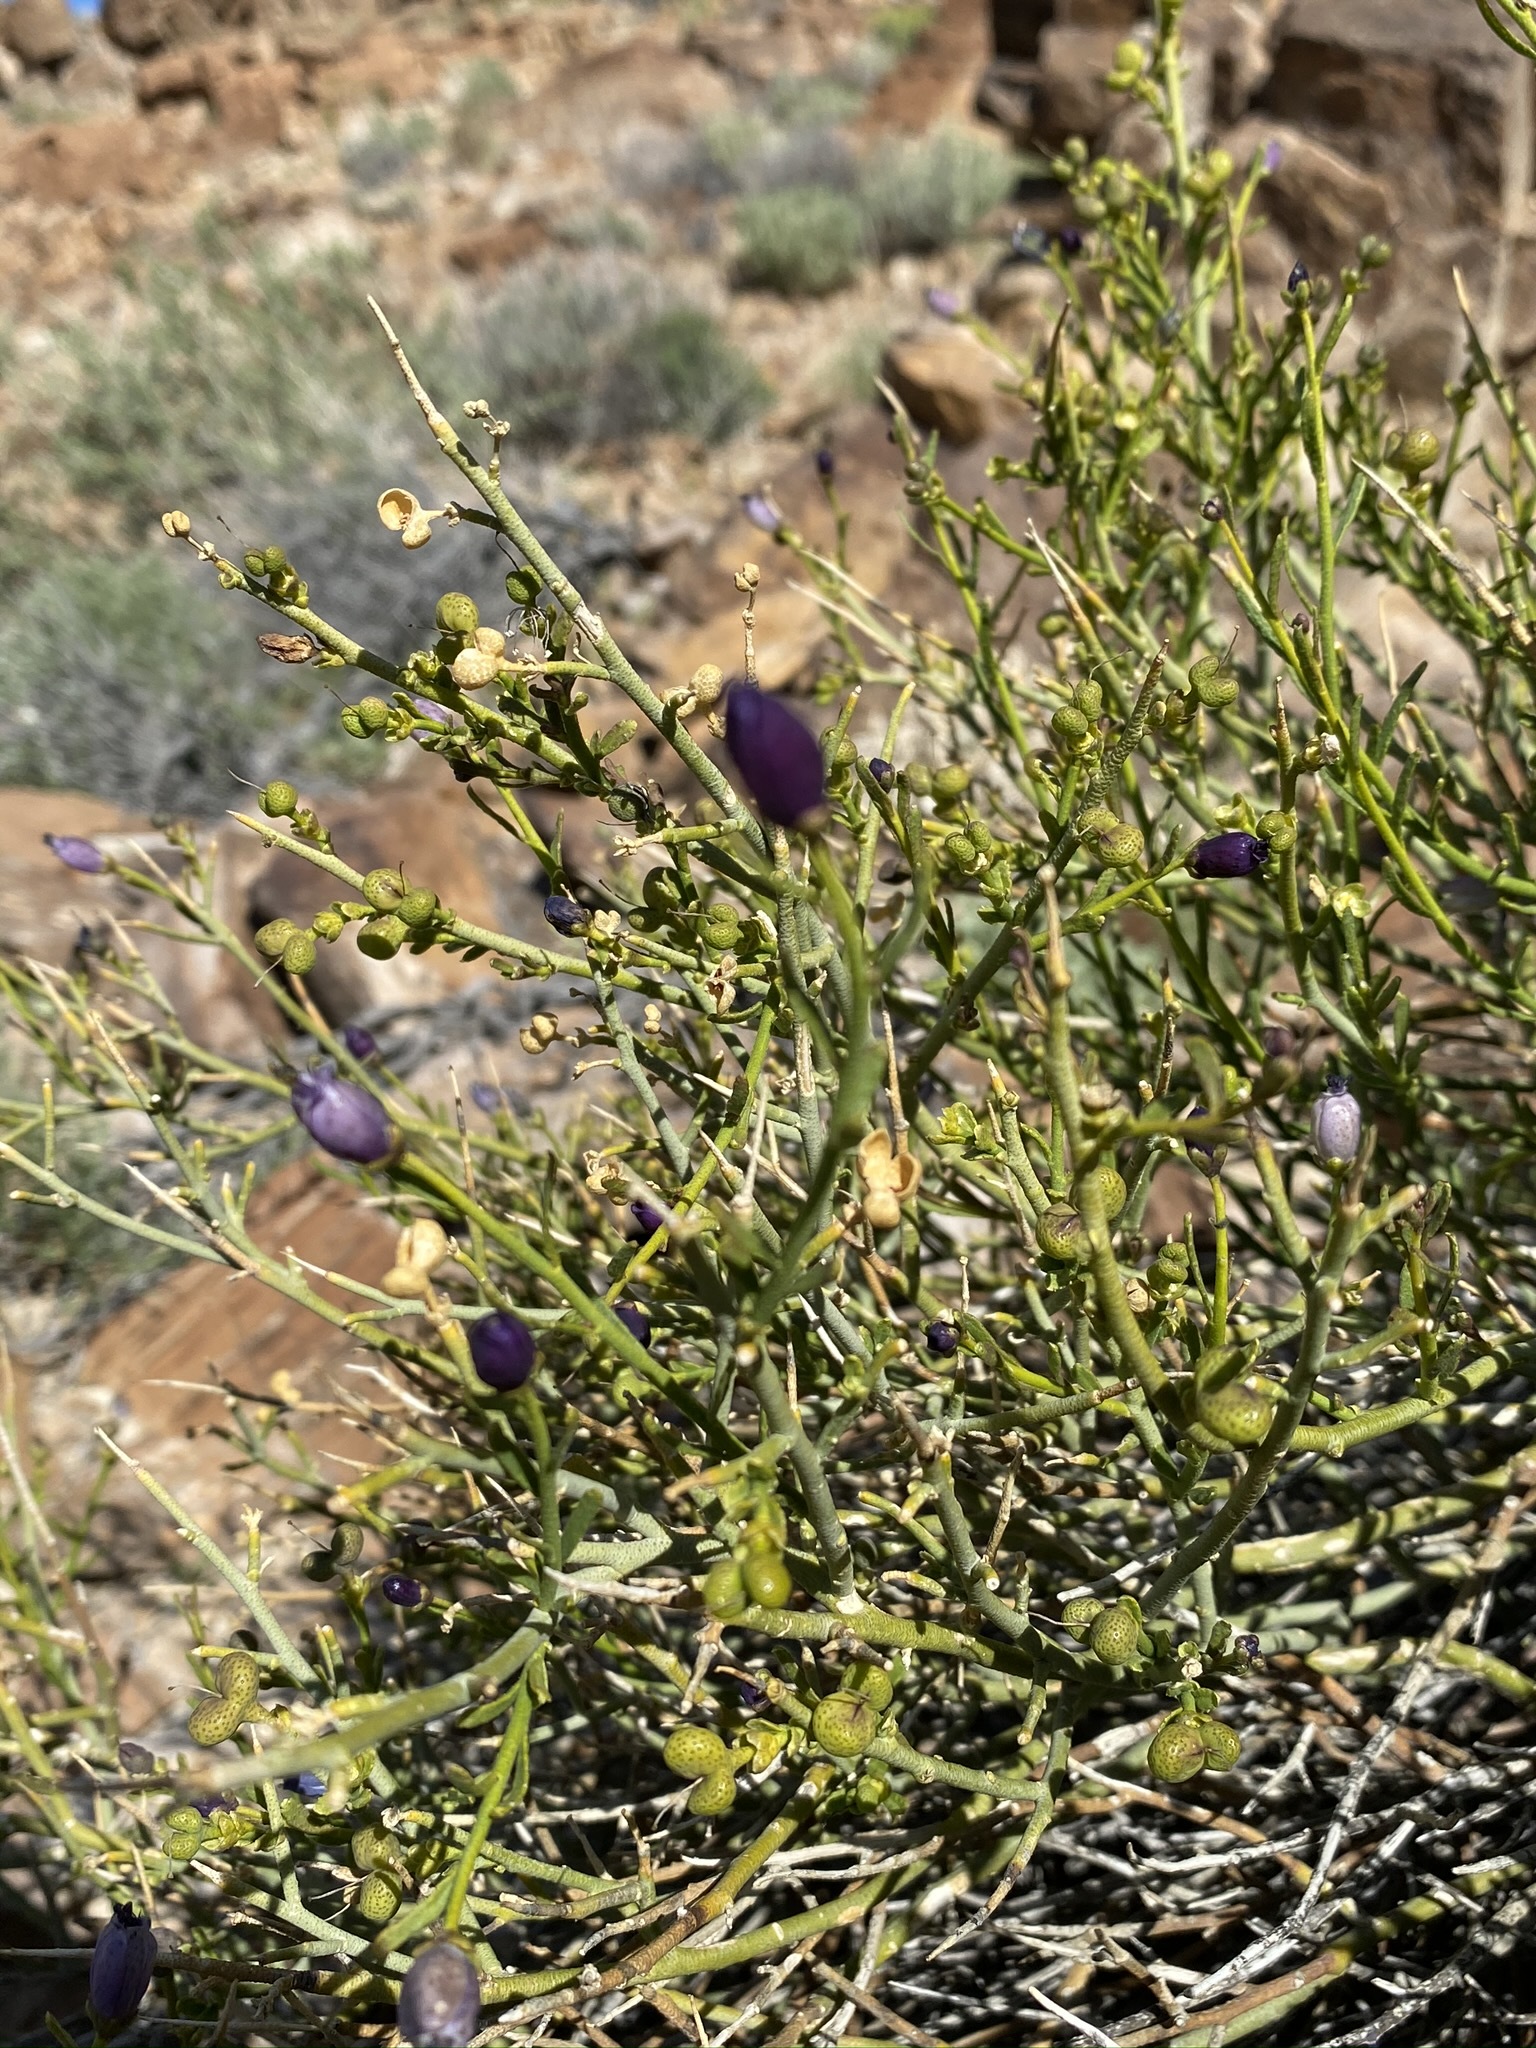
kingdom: Plantae
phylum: Tracheophyta
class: Magnoliopsida
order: Sapindales
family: Rutaceae
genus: Thamnosma
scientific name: Thamnosma montana
